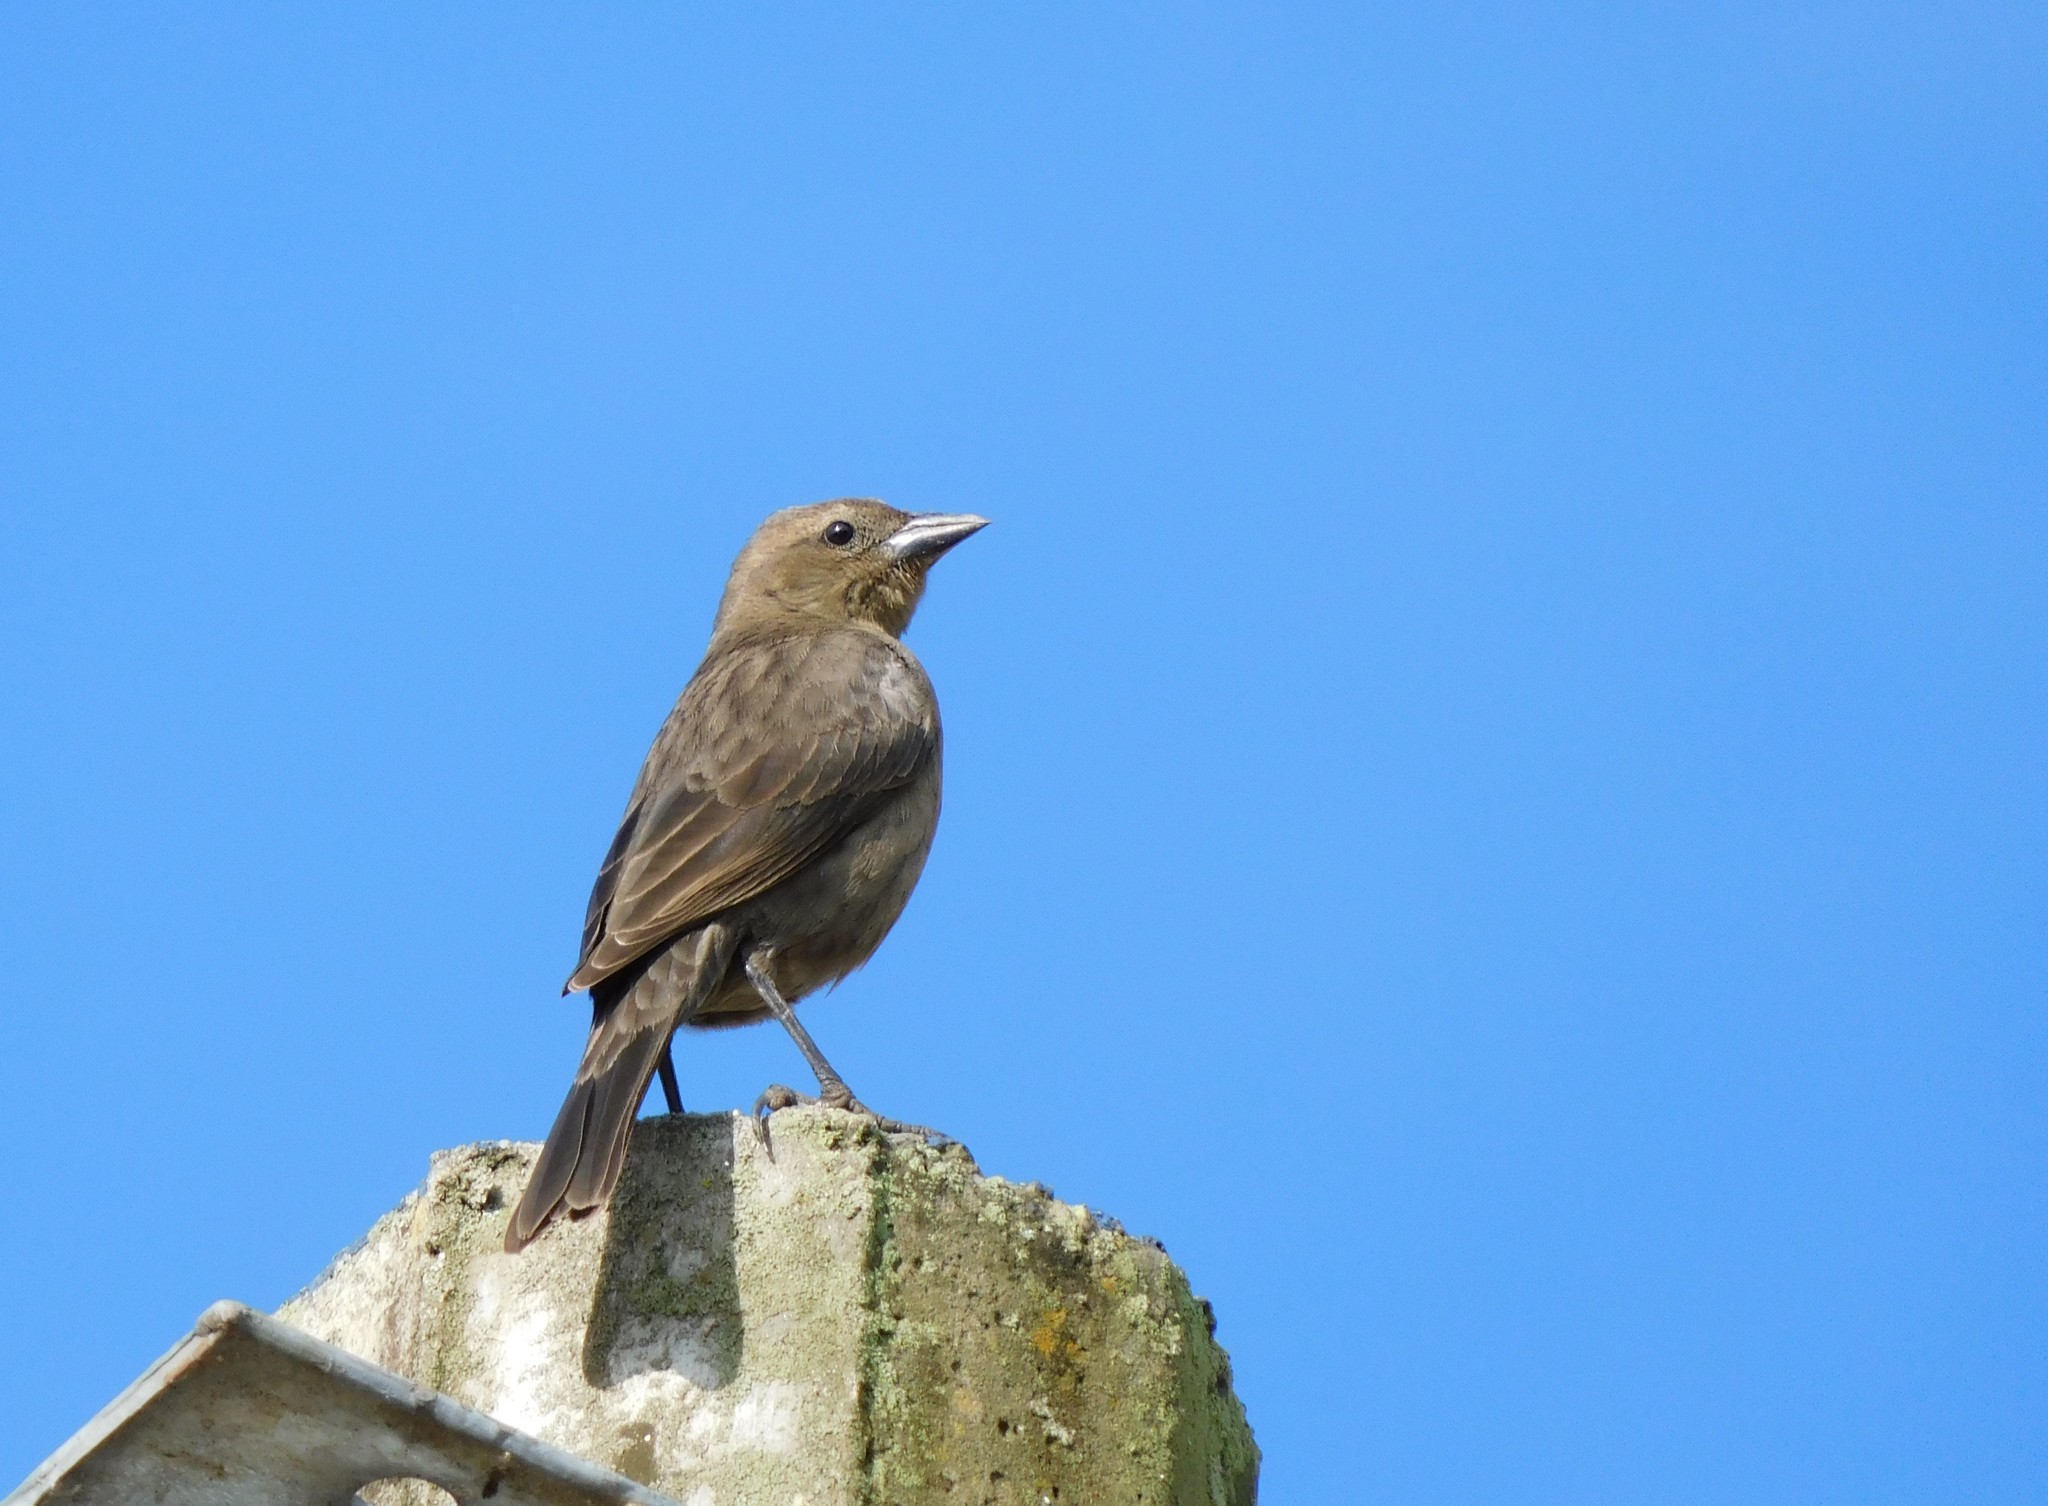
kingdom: Animalia
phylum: Chordata
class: Aves
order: Passeriformes
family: Icteridae
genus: Molothrus
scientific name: Molothrus bonariensis
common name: Shiny cowbird
